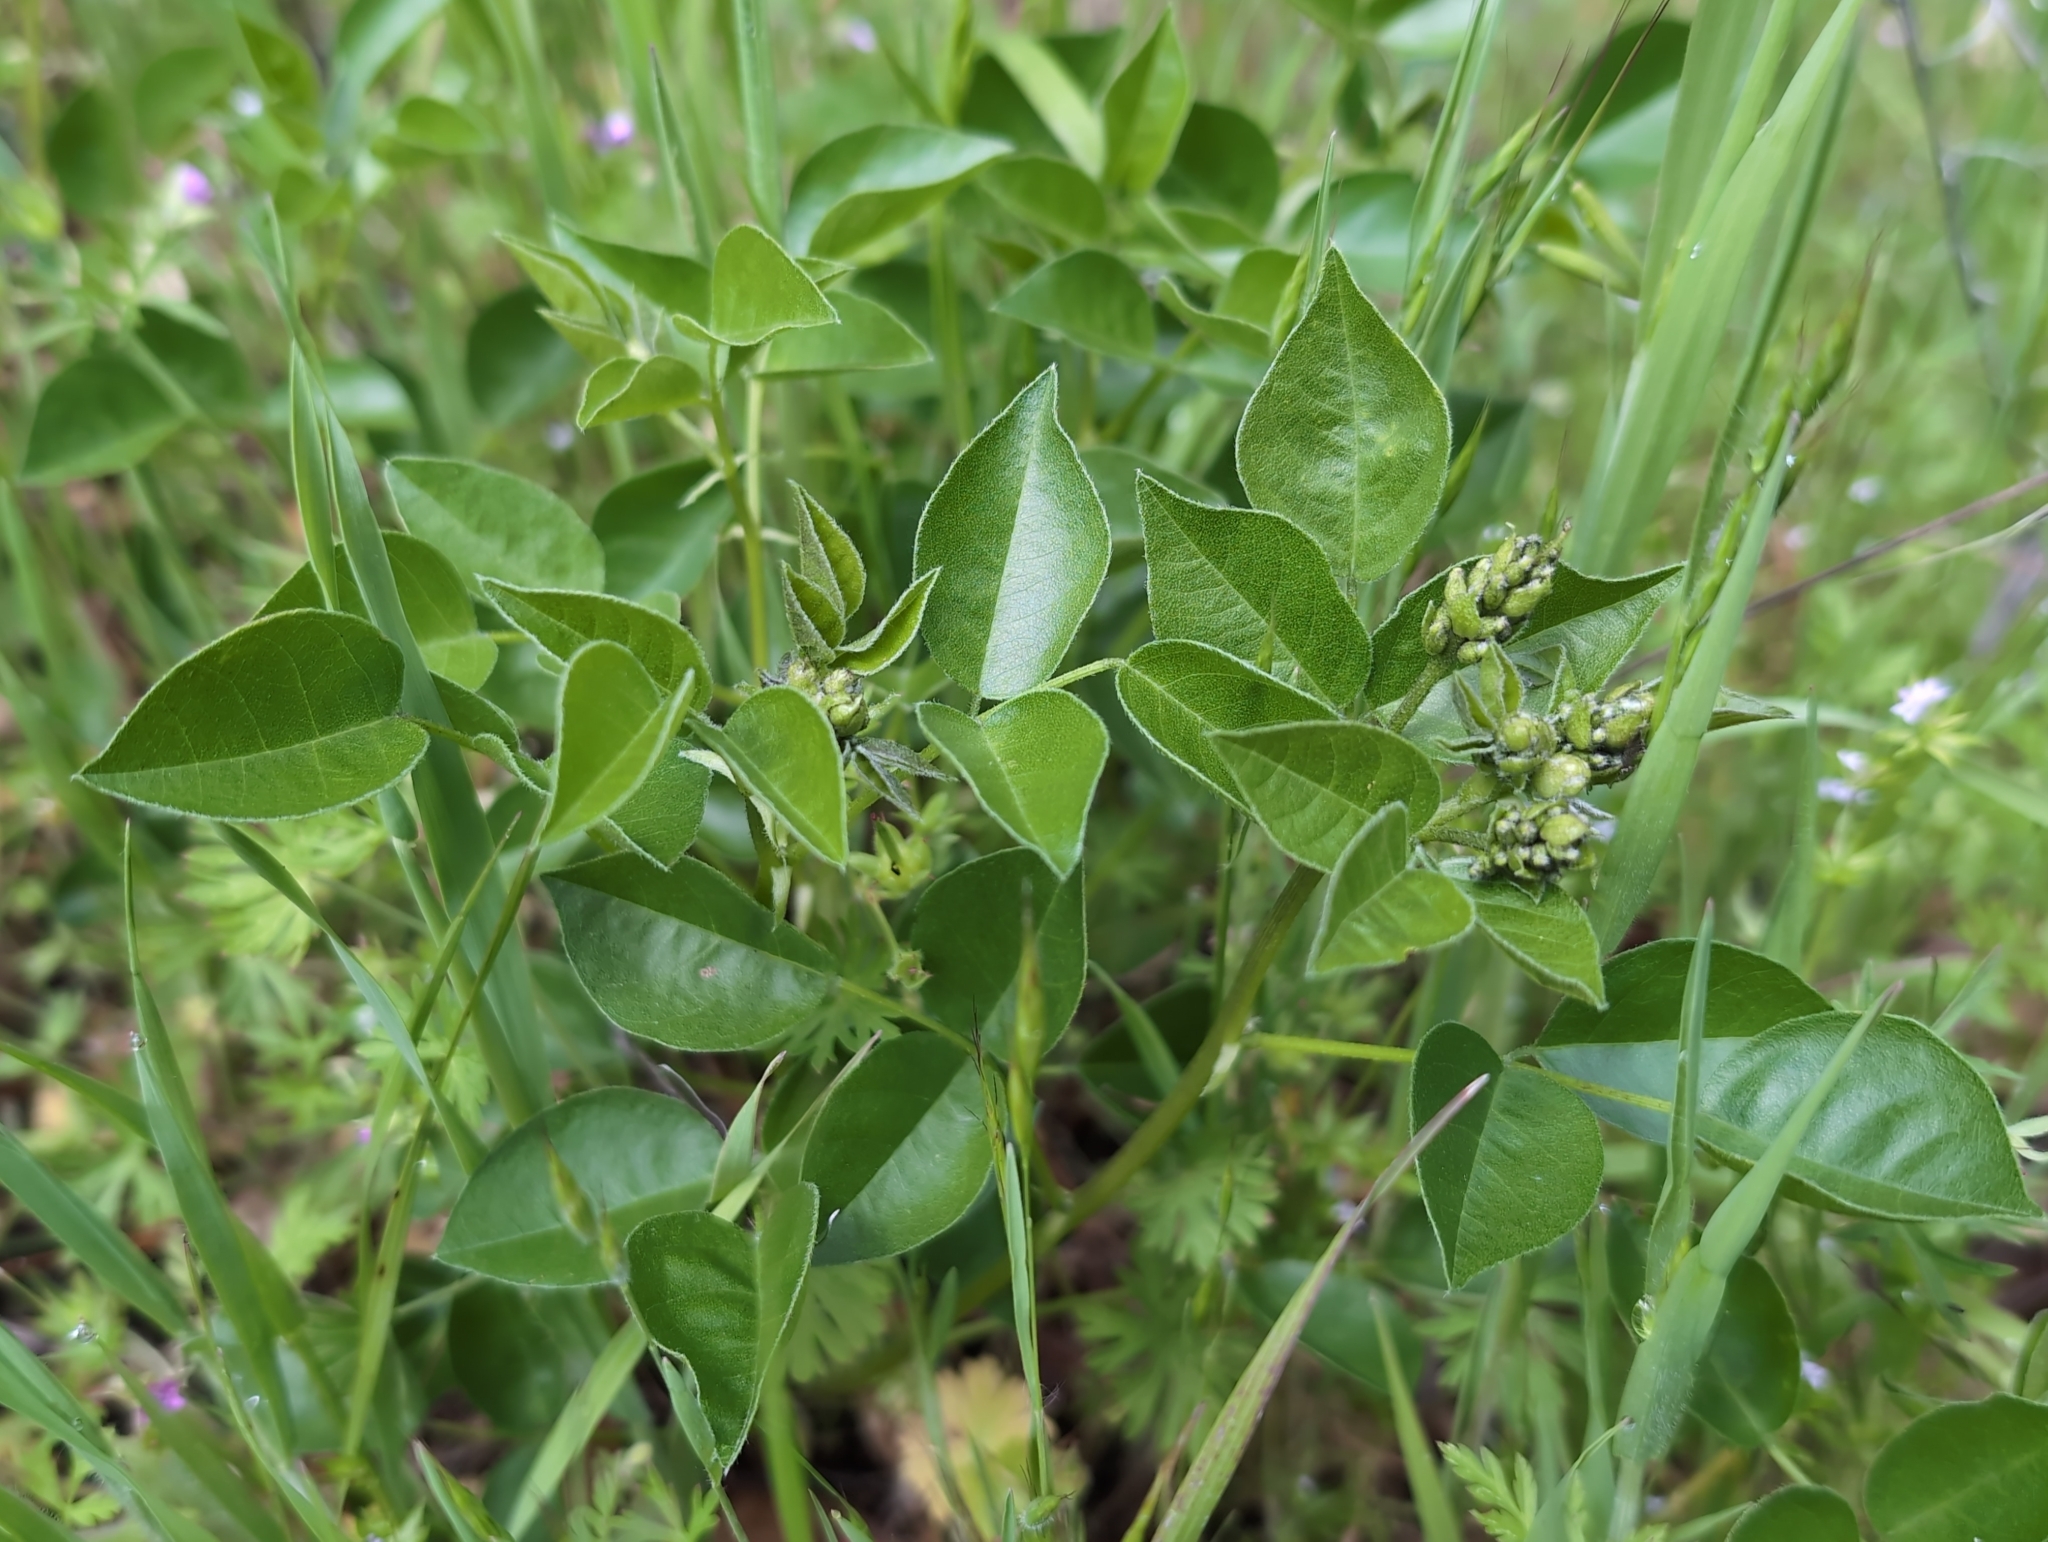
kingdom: Plantae
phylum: Tracheophyta
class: Magnoliopsida
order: Fabales
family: Fabaceae
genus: Rupertia
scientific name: Rupertia physodes
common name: California-tea
